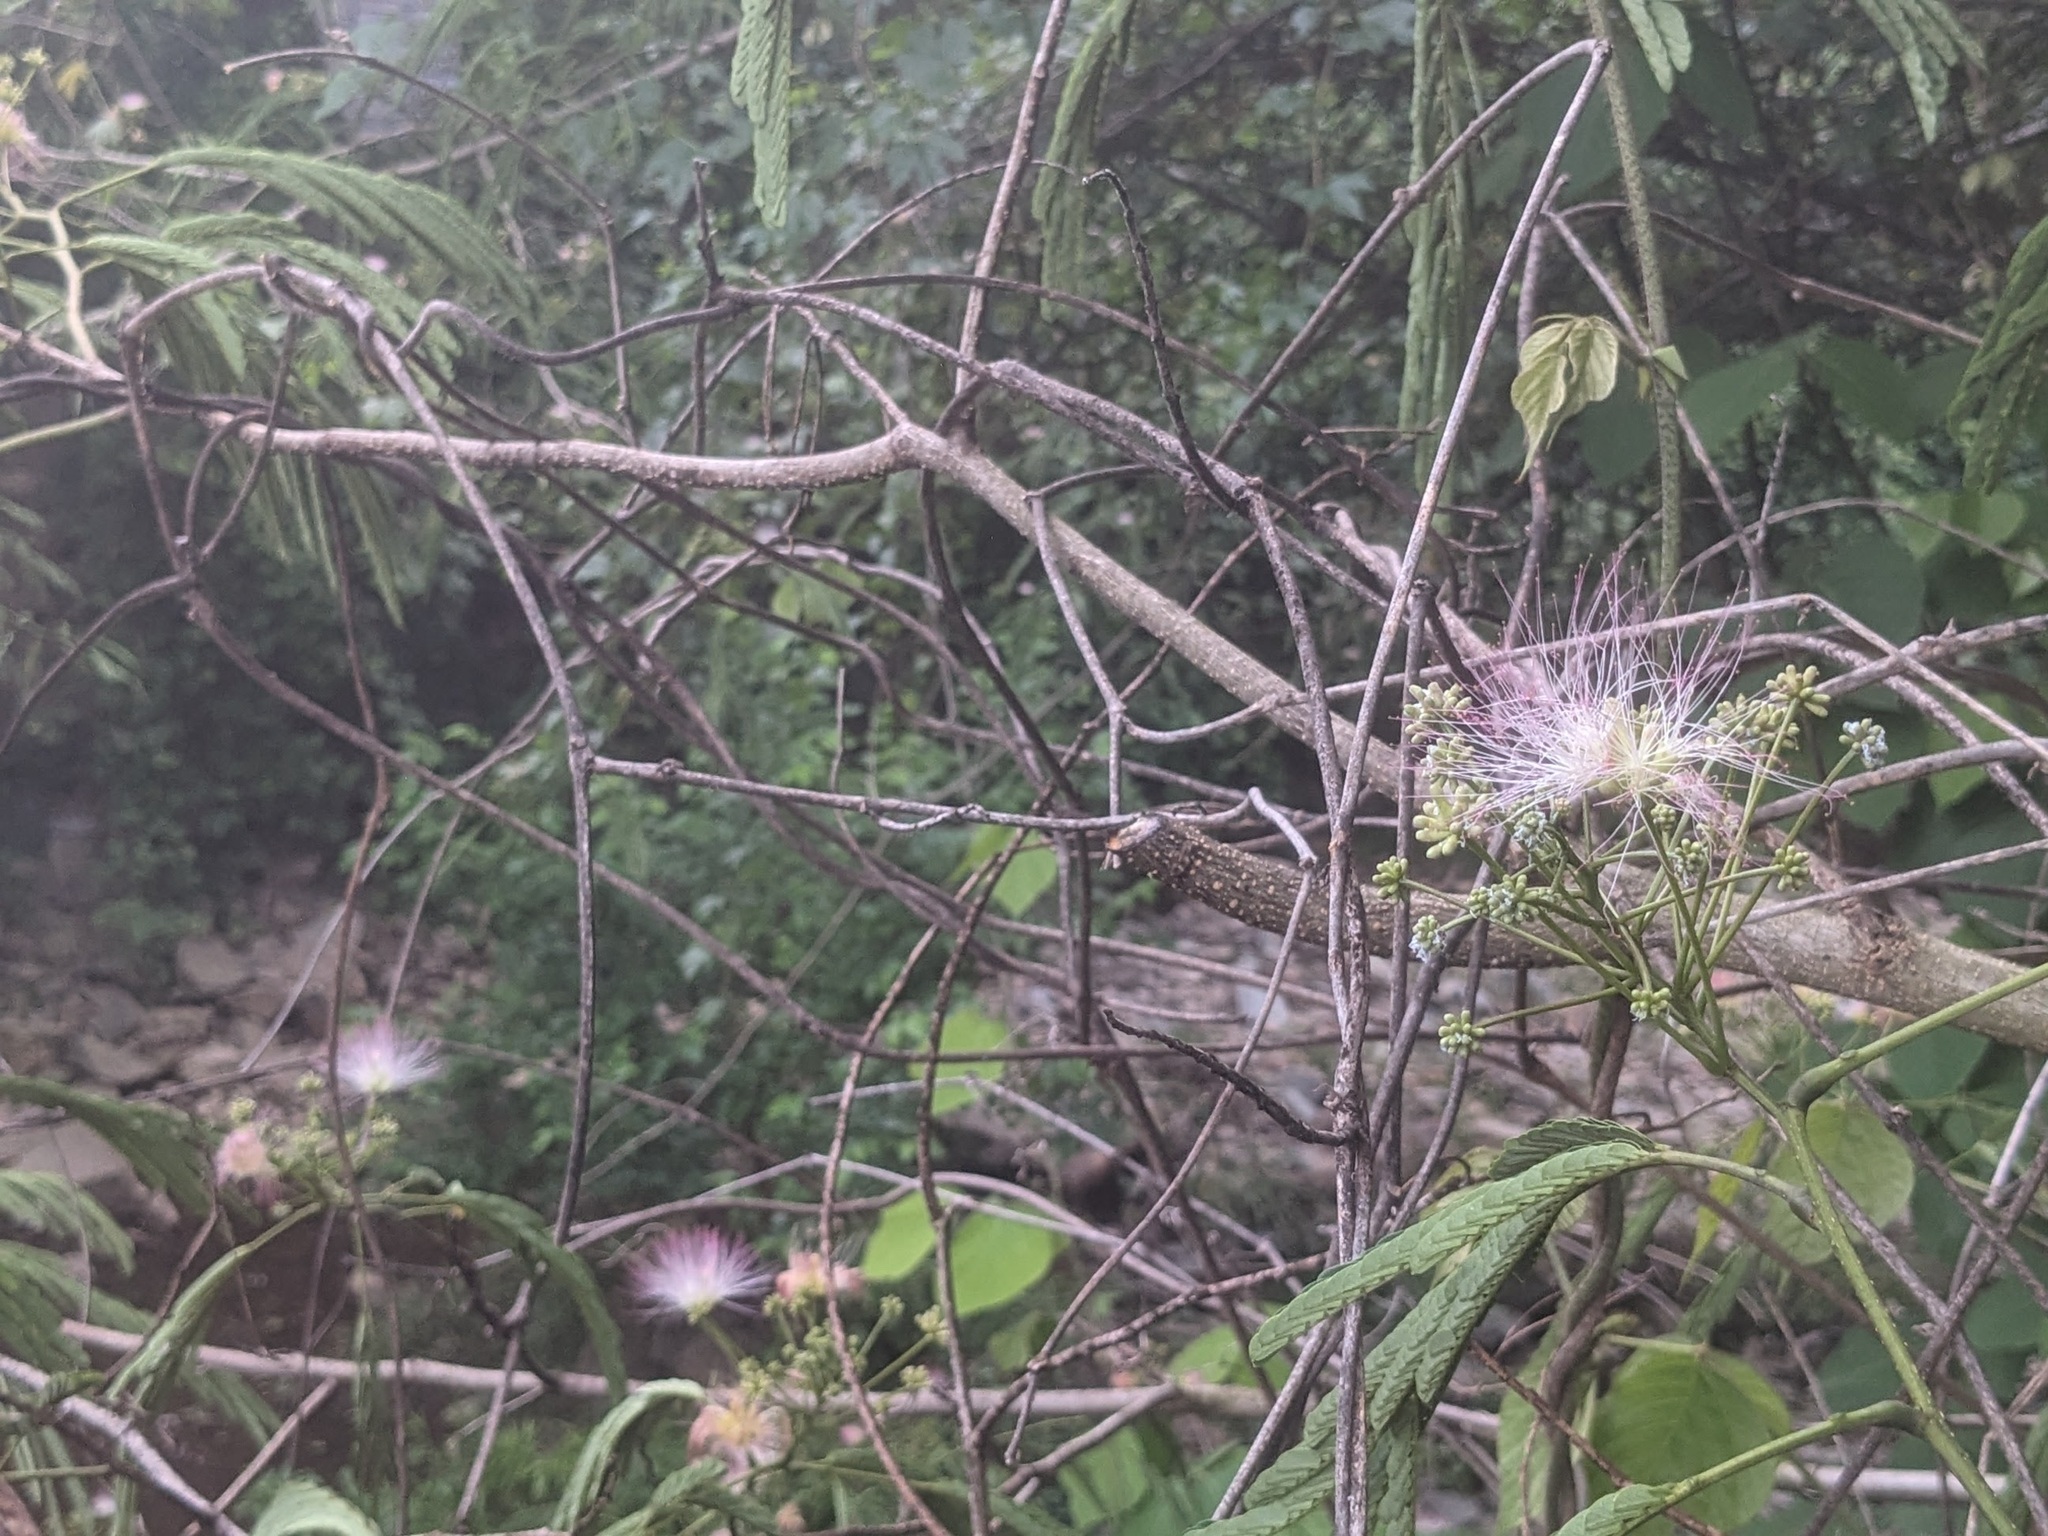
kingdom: Plantae
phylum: Tracheophyta
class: Magnoliopsida
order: Fabales
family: Fabaceae
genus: Albizia
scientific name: Albizia julibrissin
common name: Silktree
